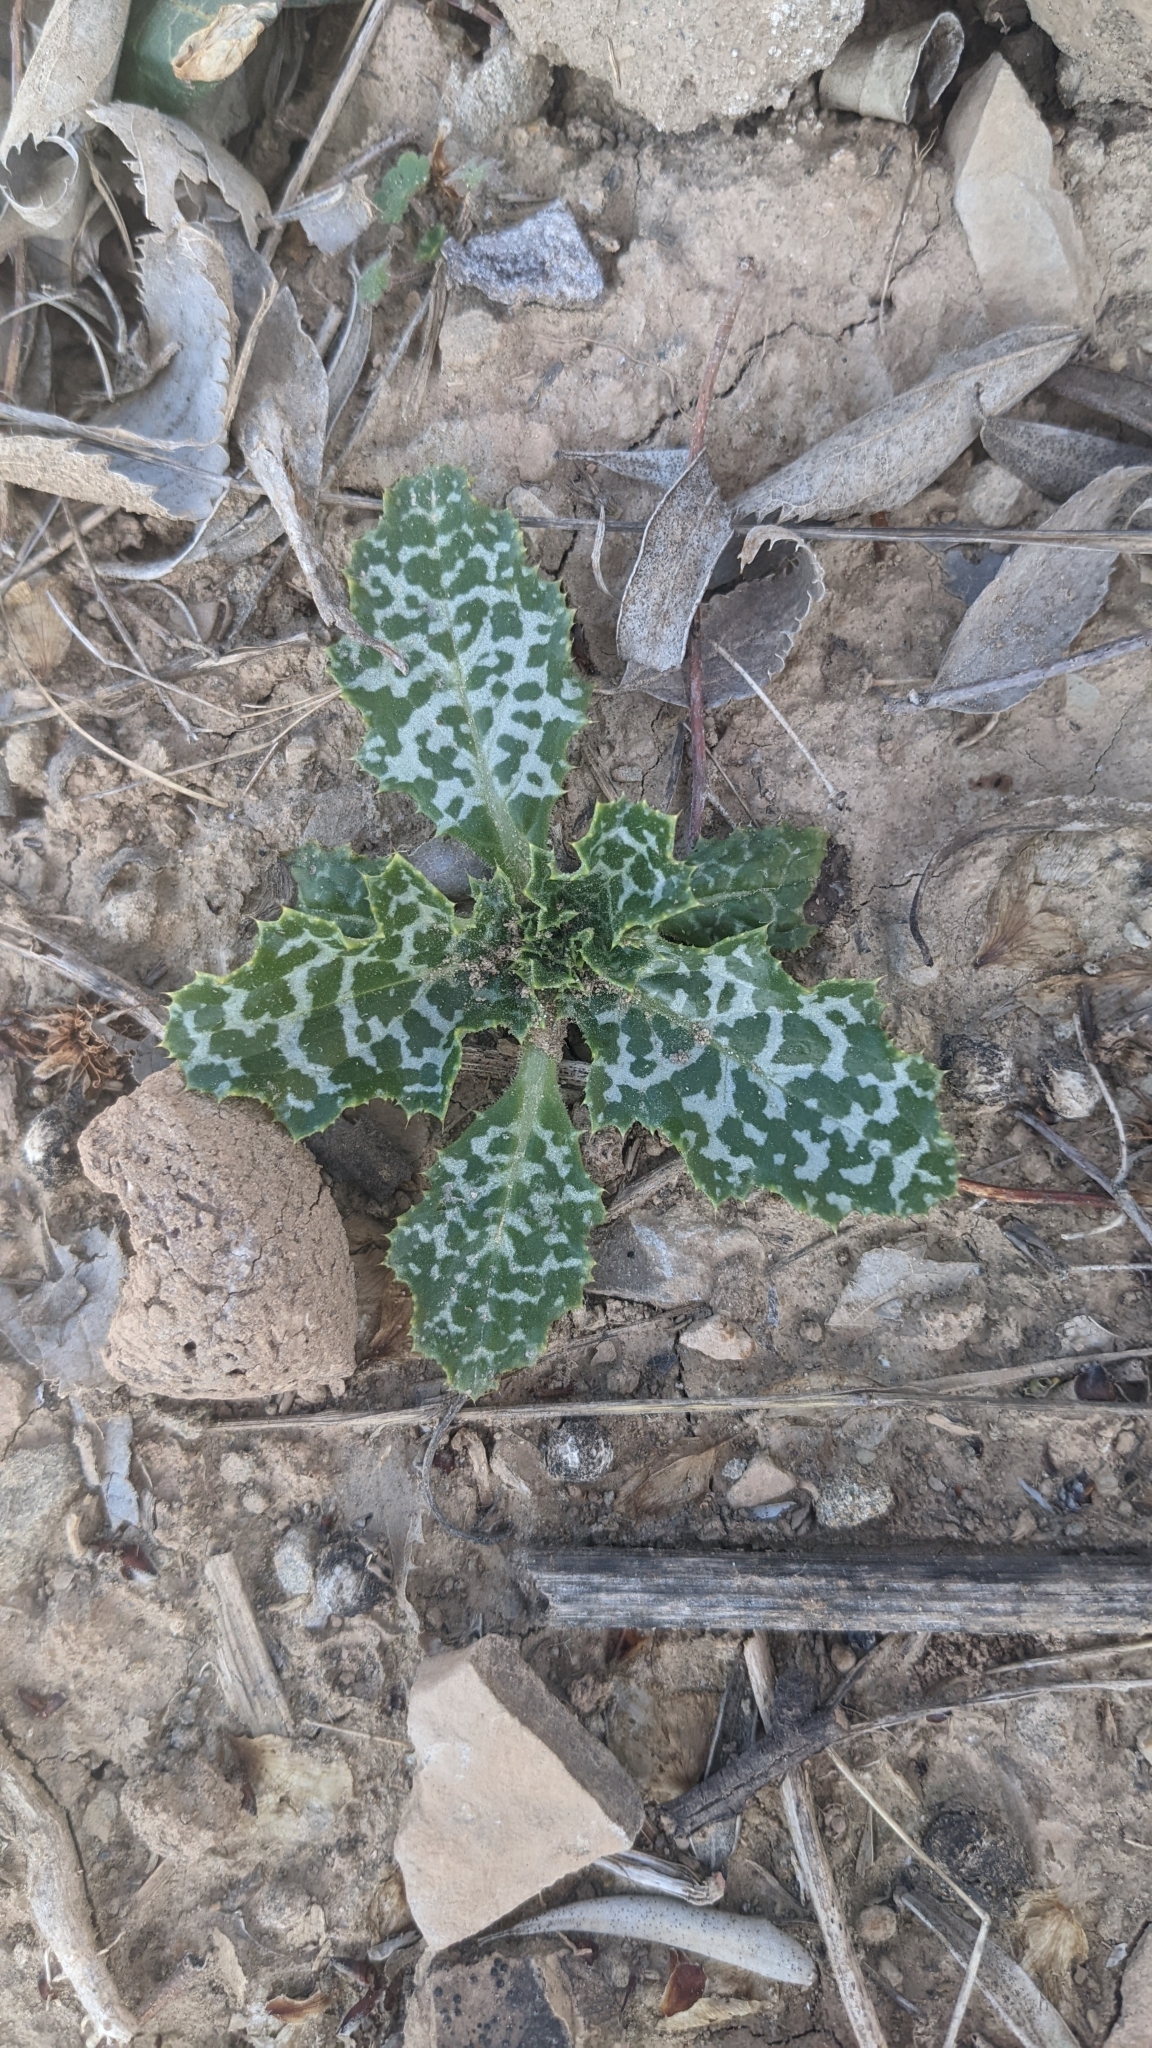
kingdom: Plantae
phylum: Tracheophyta
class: Magnoliopsida
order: Asterales
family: Asteraceae
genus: Silybum
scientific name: Silybum marianum
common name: Milk thistle
